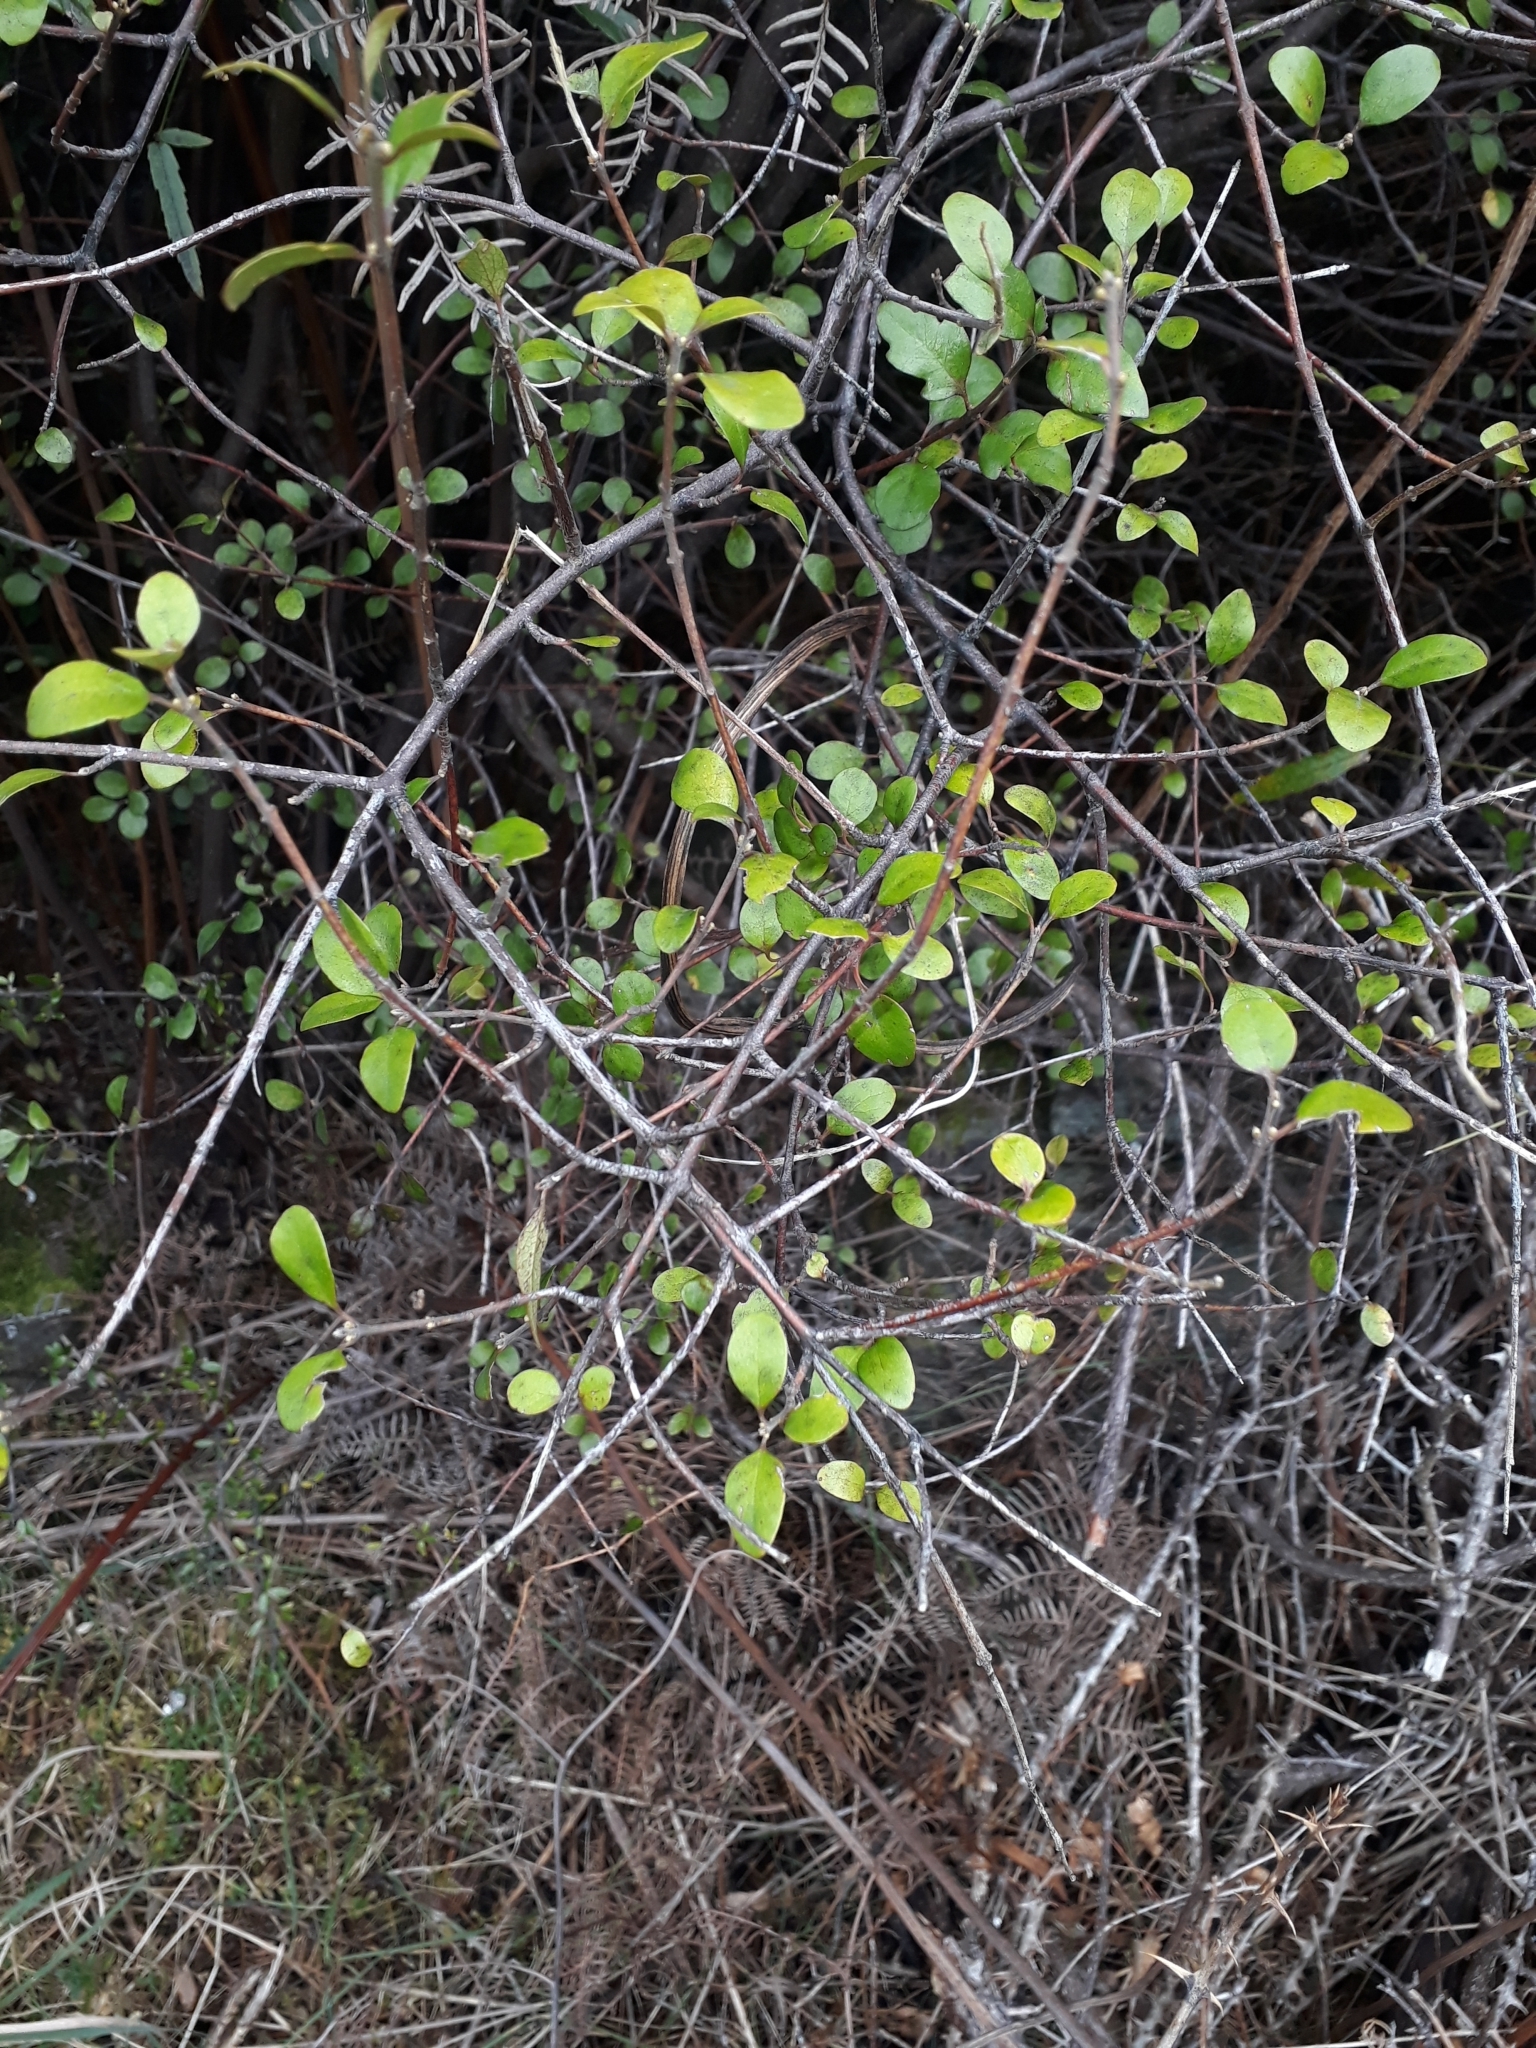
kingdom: Plantae
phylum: Tracheophyta
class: Magnoliopsida
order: Oxalidales
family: Elaeocarpaceae
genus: Aristotelia
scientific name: Aristotelia fruticosa
